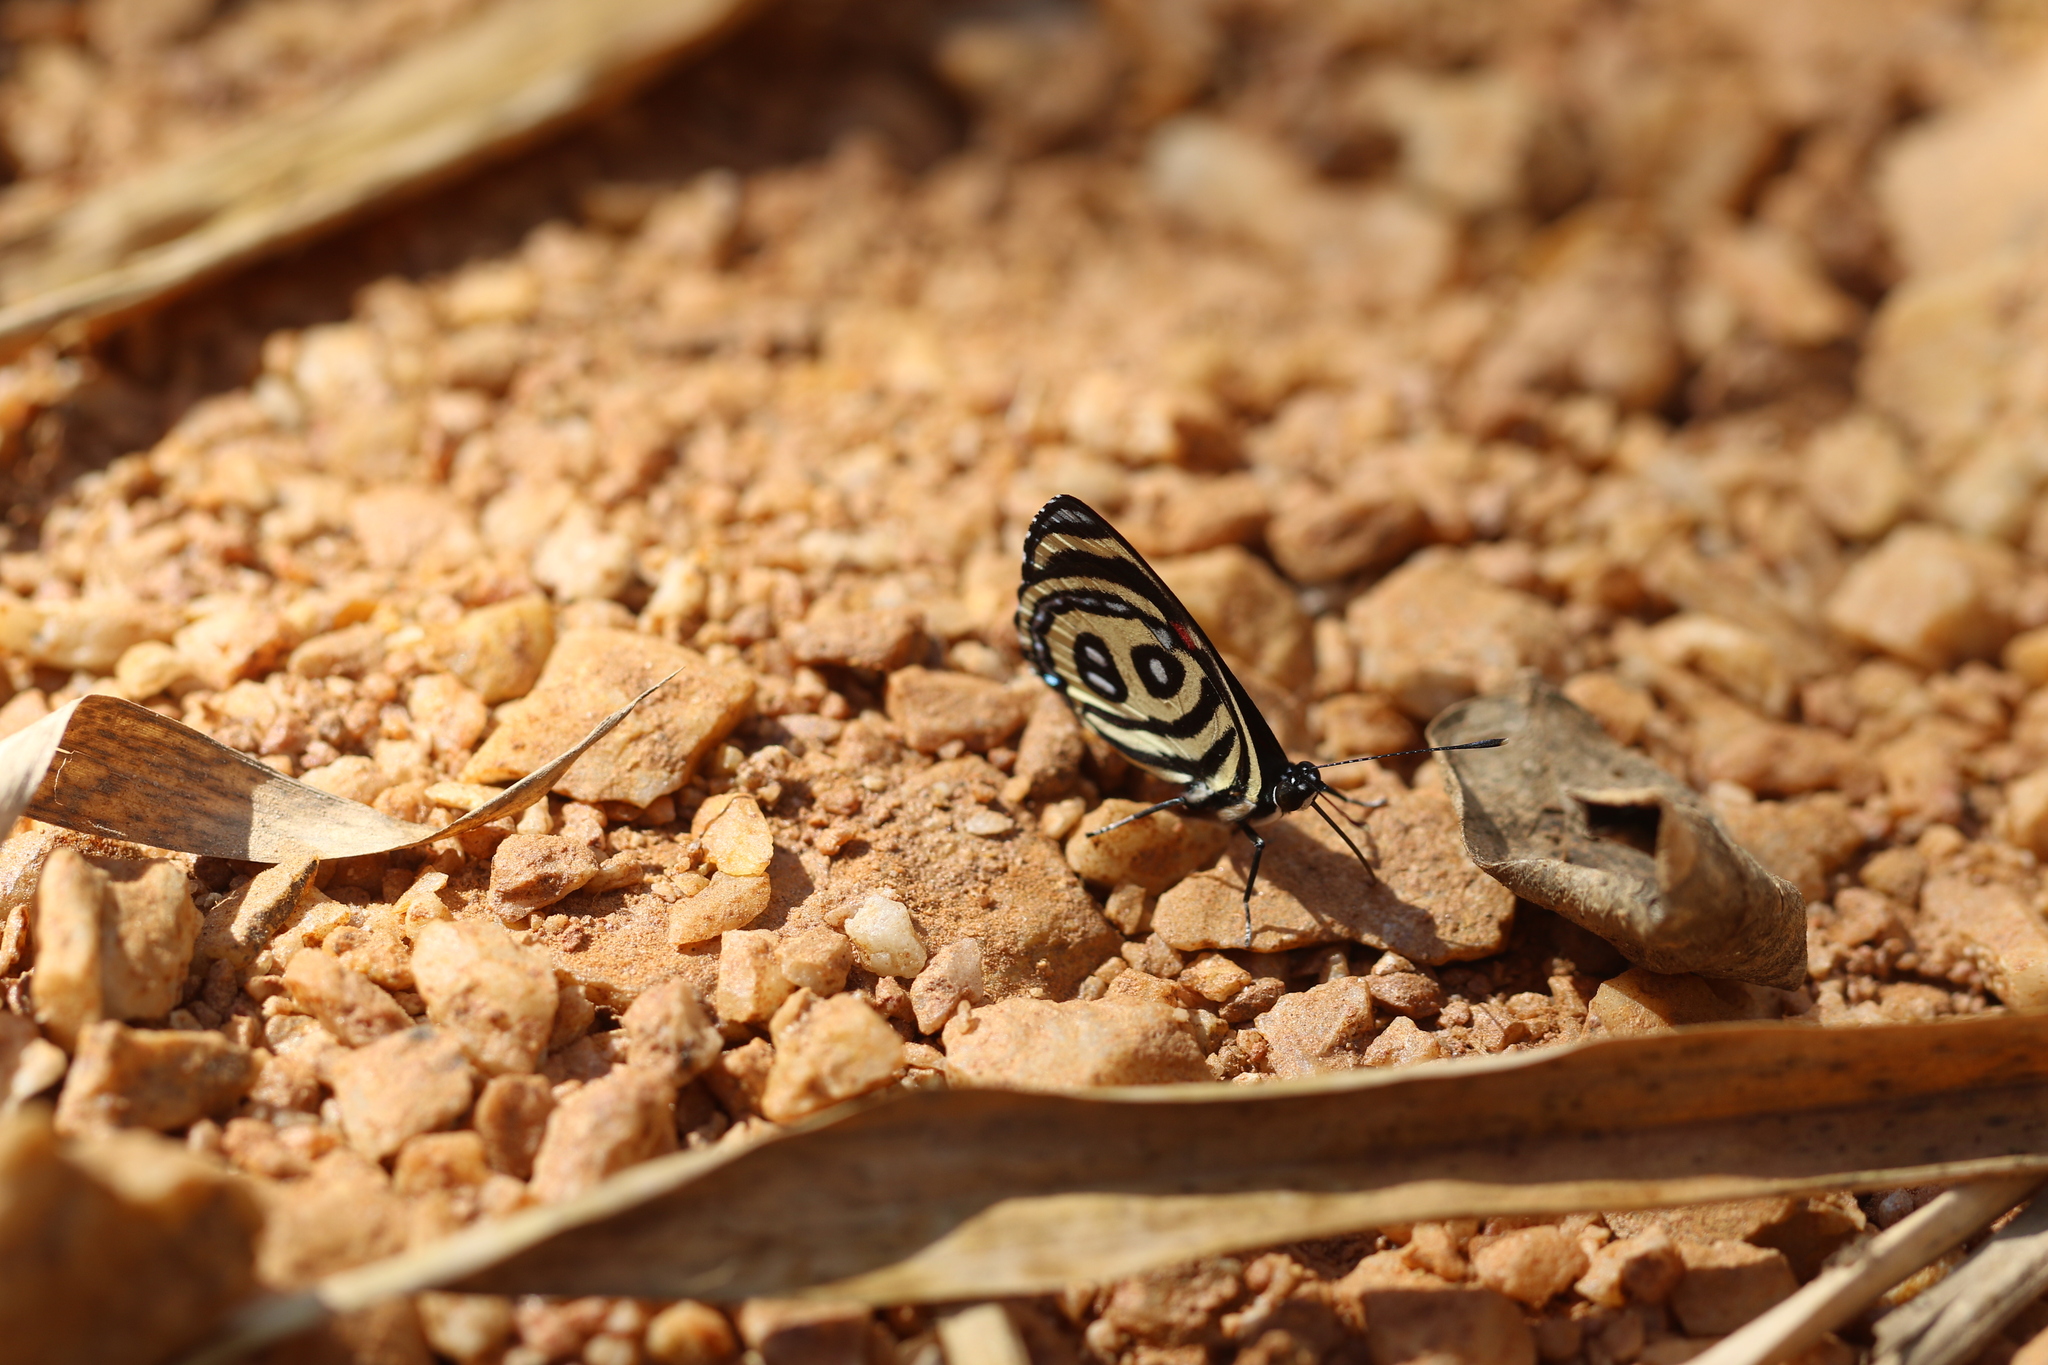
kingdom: Animalia
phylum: Arthropoda
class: Insecta
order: Lepidoptera
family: Nymphalidae
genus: Catagramma
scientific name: Catagramma pyracmon
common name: Google-eyed eighty-eight
